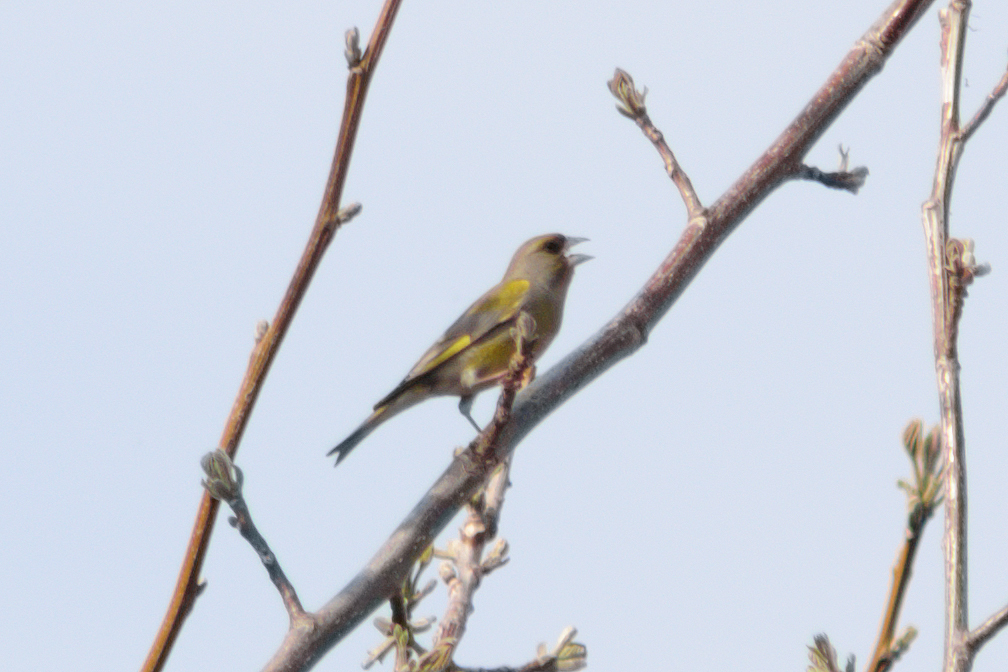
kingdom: Plantae
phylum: Tracheophyta
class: Liliopsida
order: Poales
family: Poaceae
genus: Chloris
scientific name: Chloris chloris
